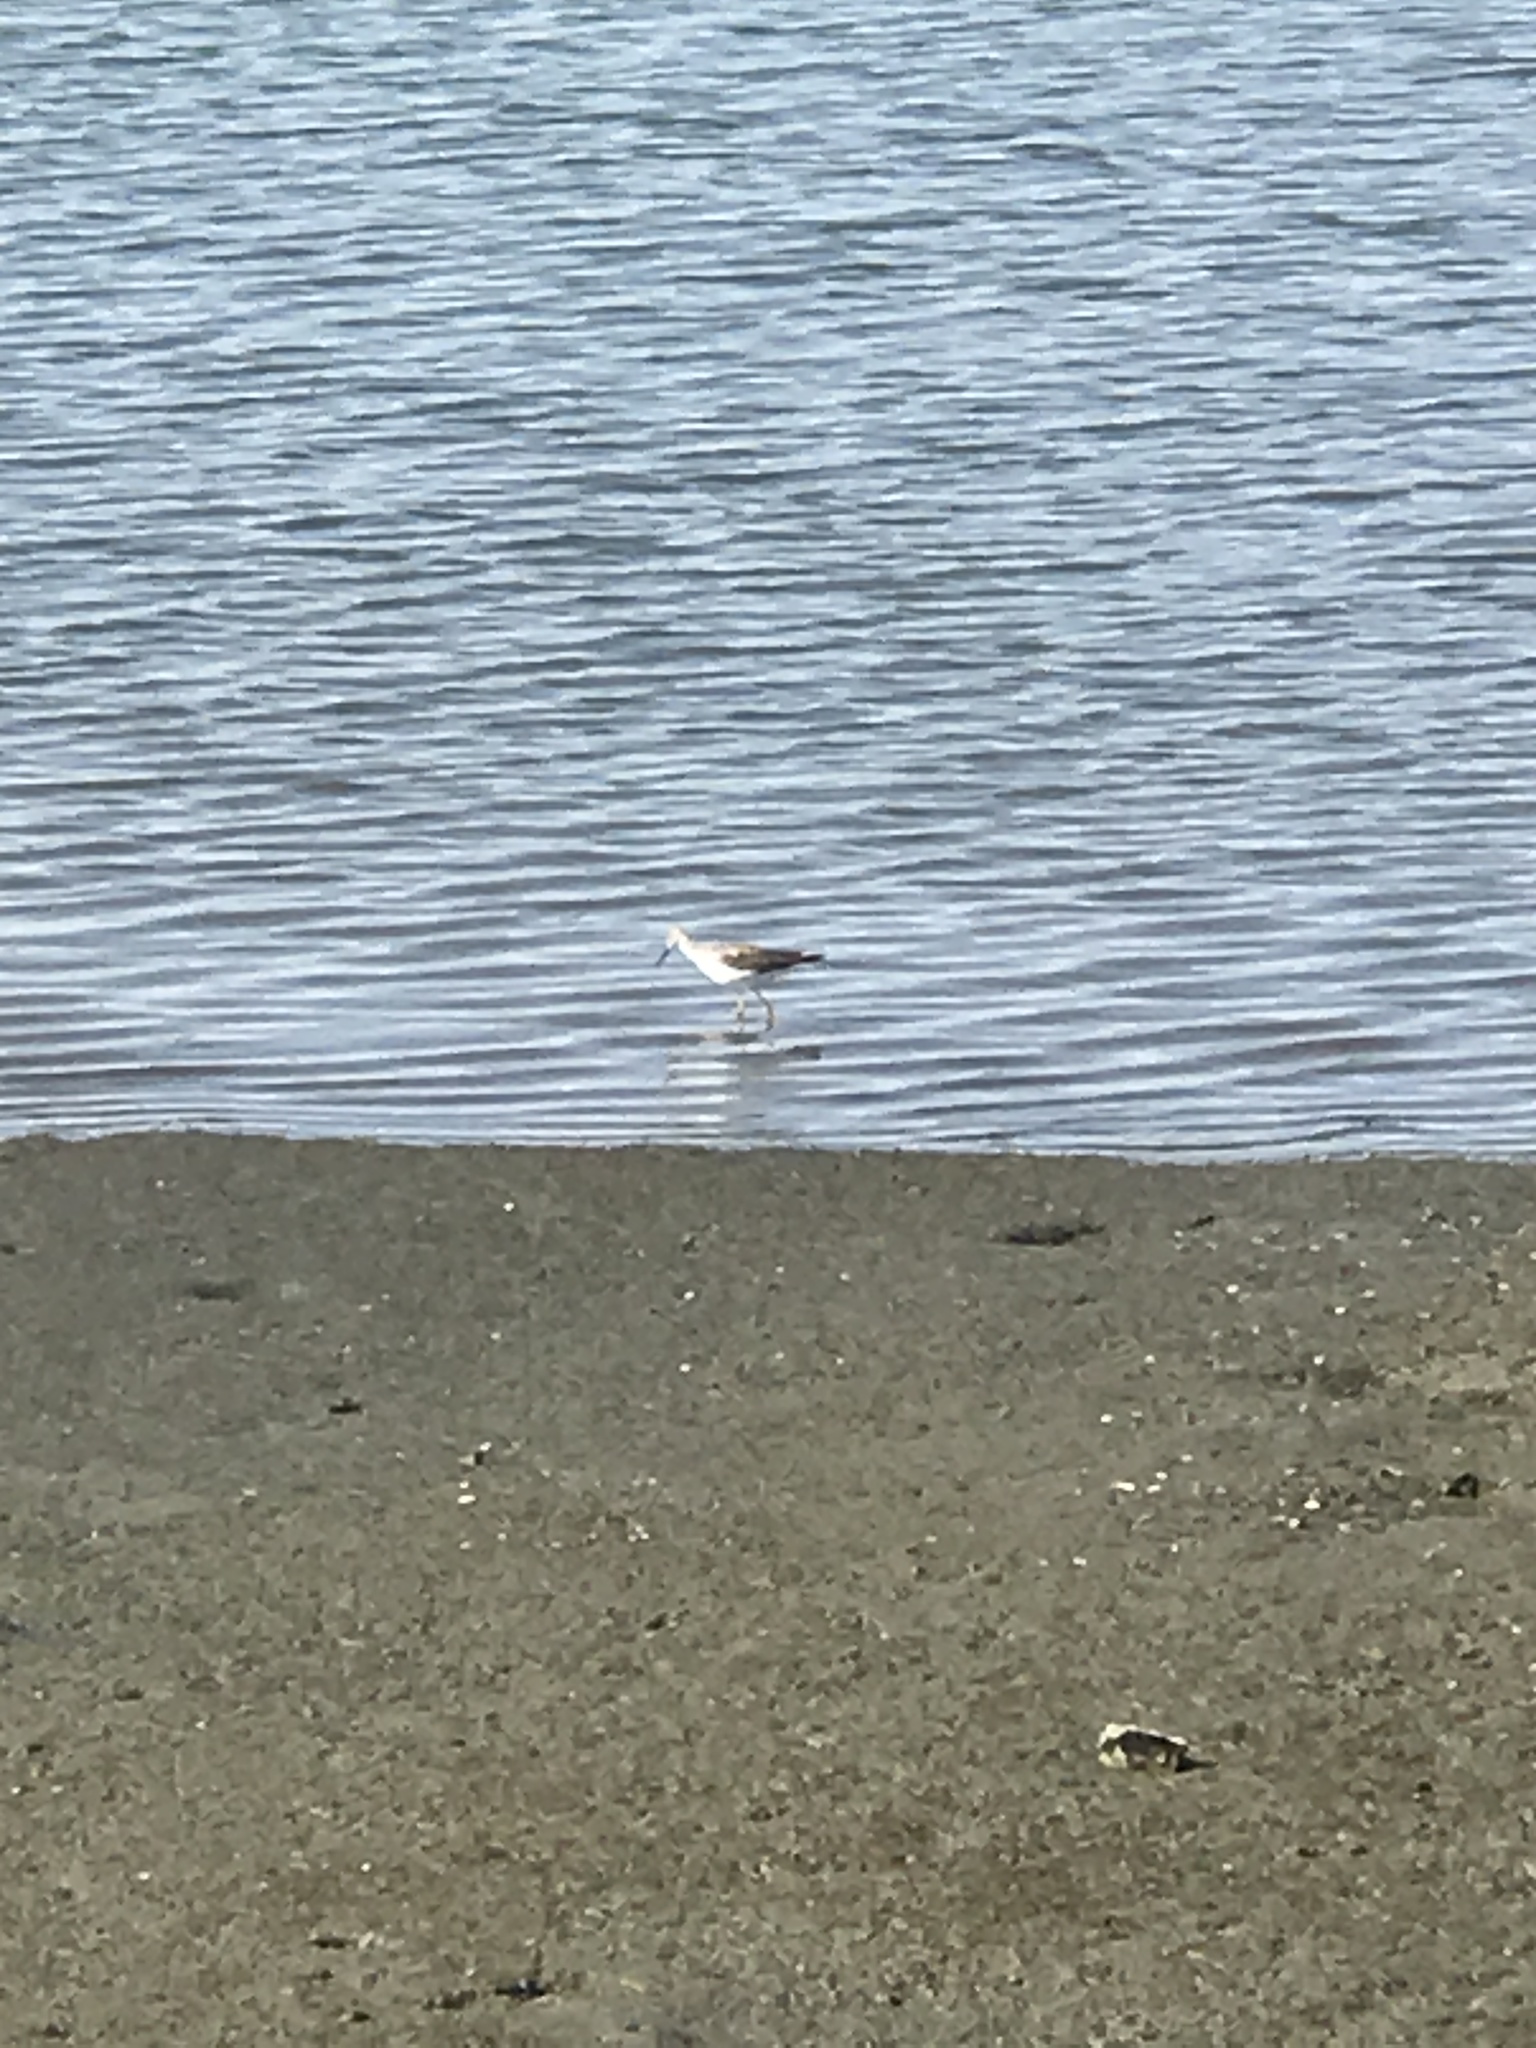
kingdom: Animalia
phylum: Chordata
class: Aves
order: Charadriiformes
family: Scolopacidae
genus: Tringa
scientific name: Tringa melanoleuca
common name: Greater yellowlegs
